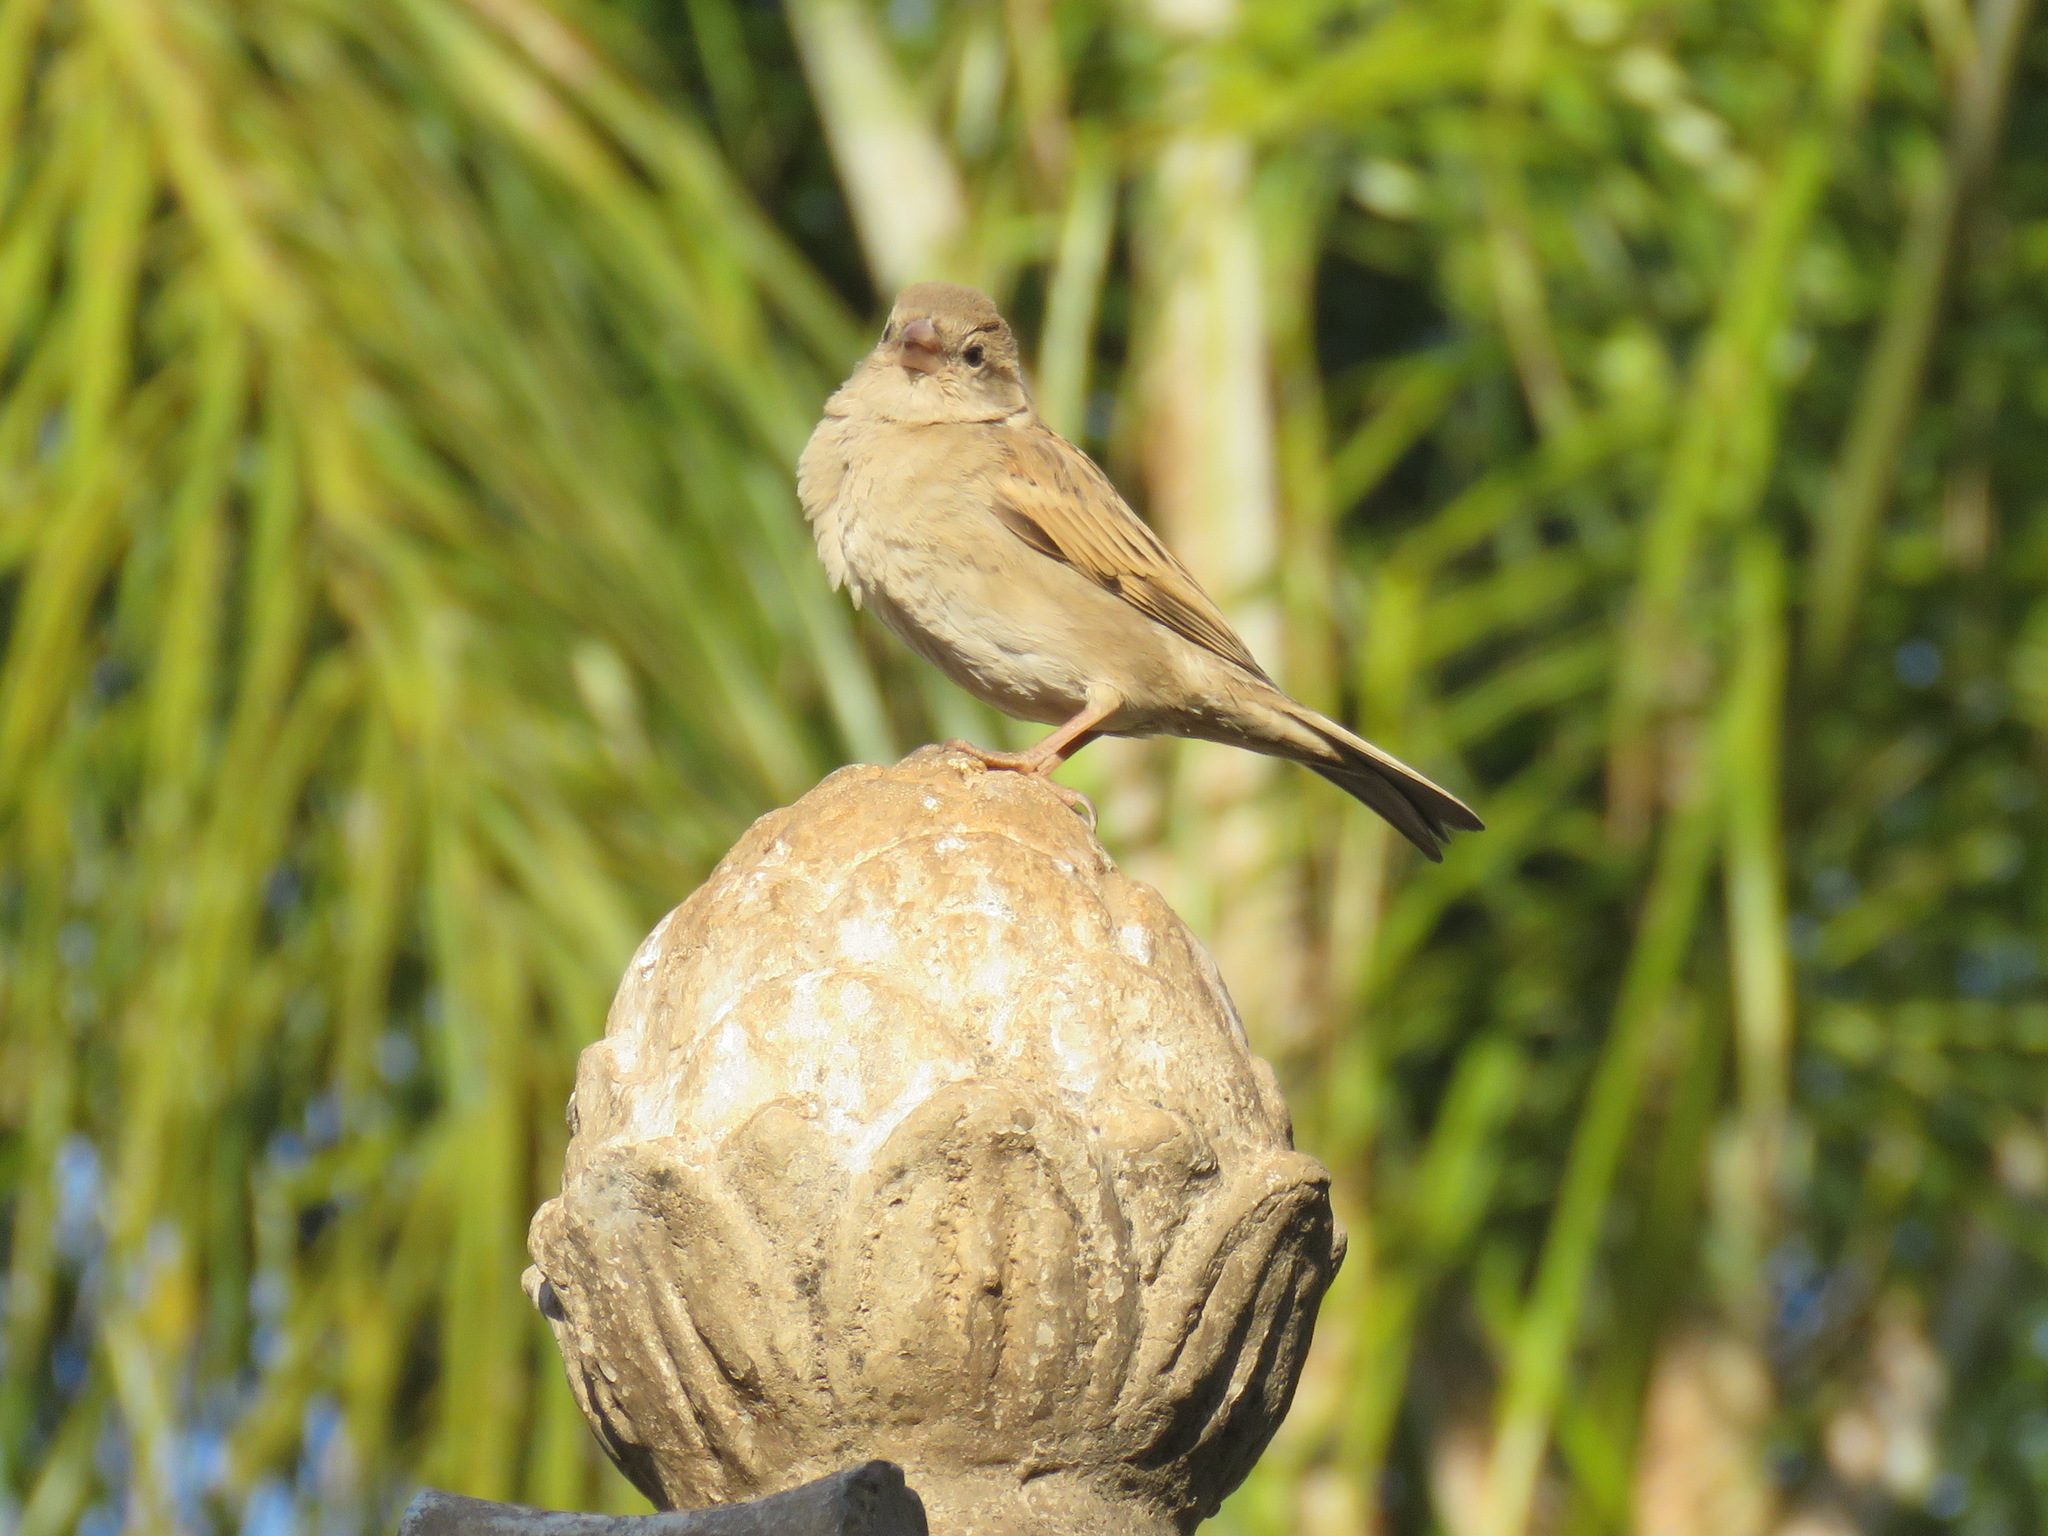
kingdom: Animalia
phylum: Chordata
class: Aves
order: Passeriformes
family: Passeridae
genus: Passer
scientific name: Passer domesticus
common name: House sparrow
